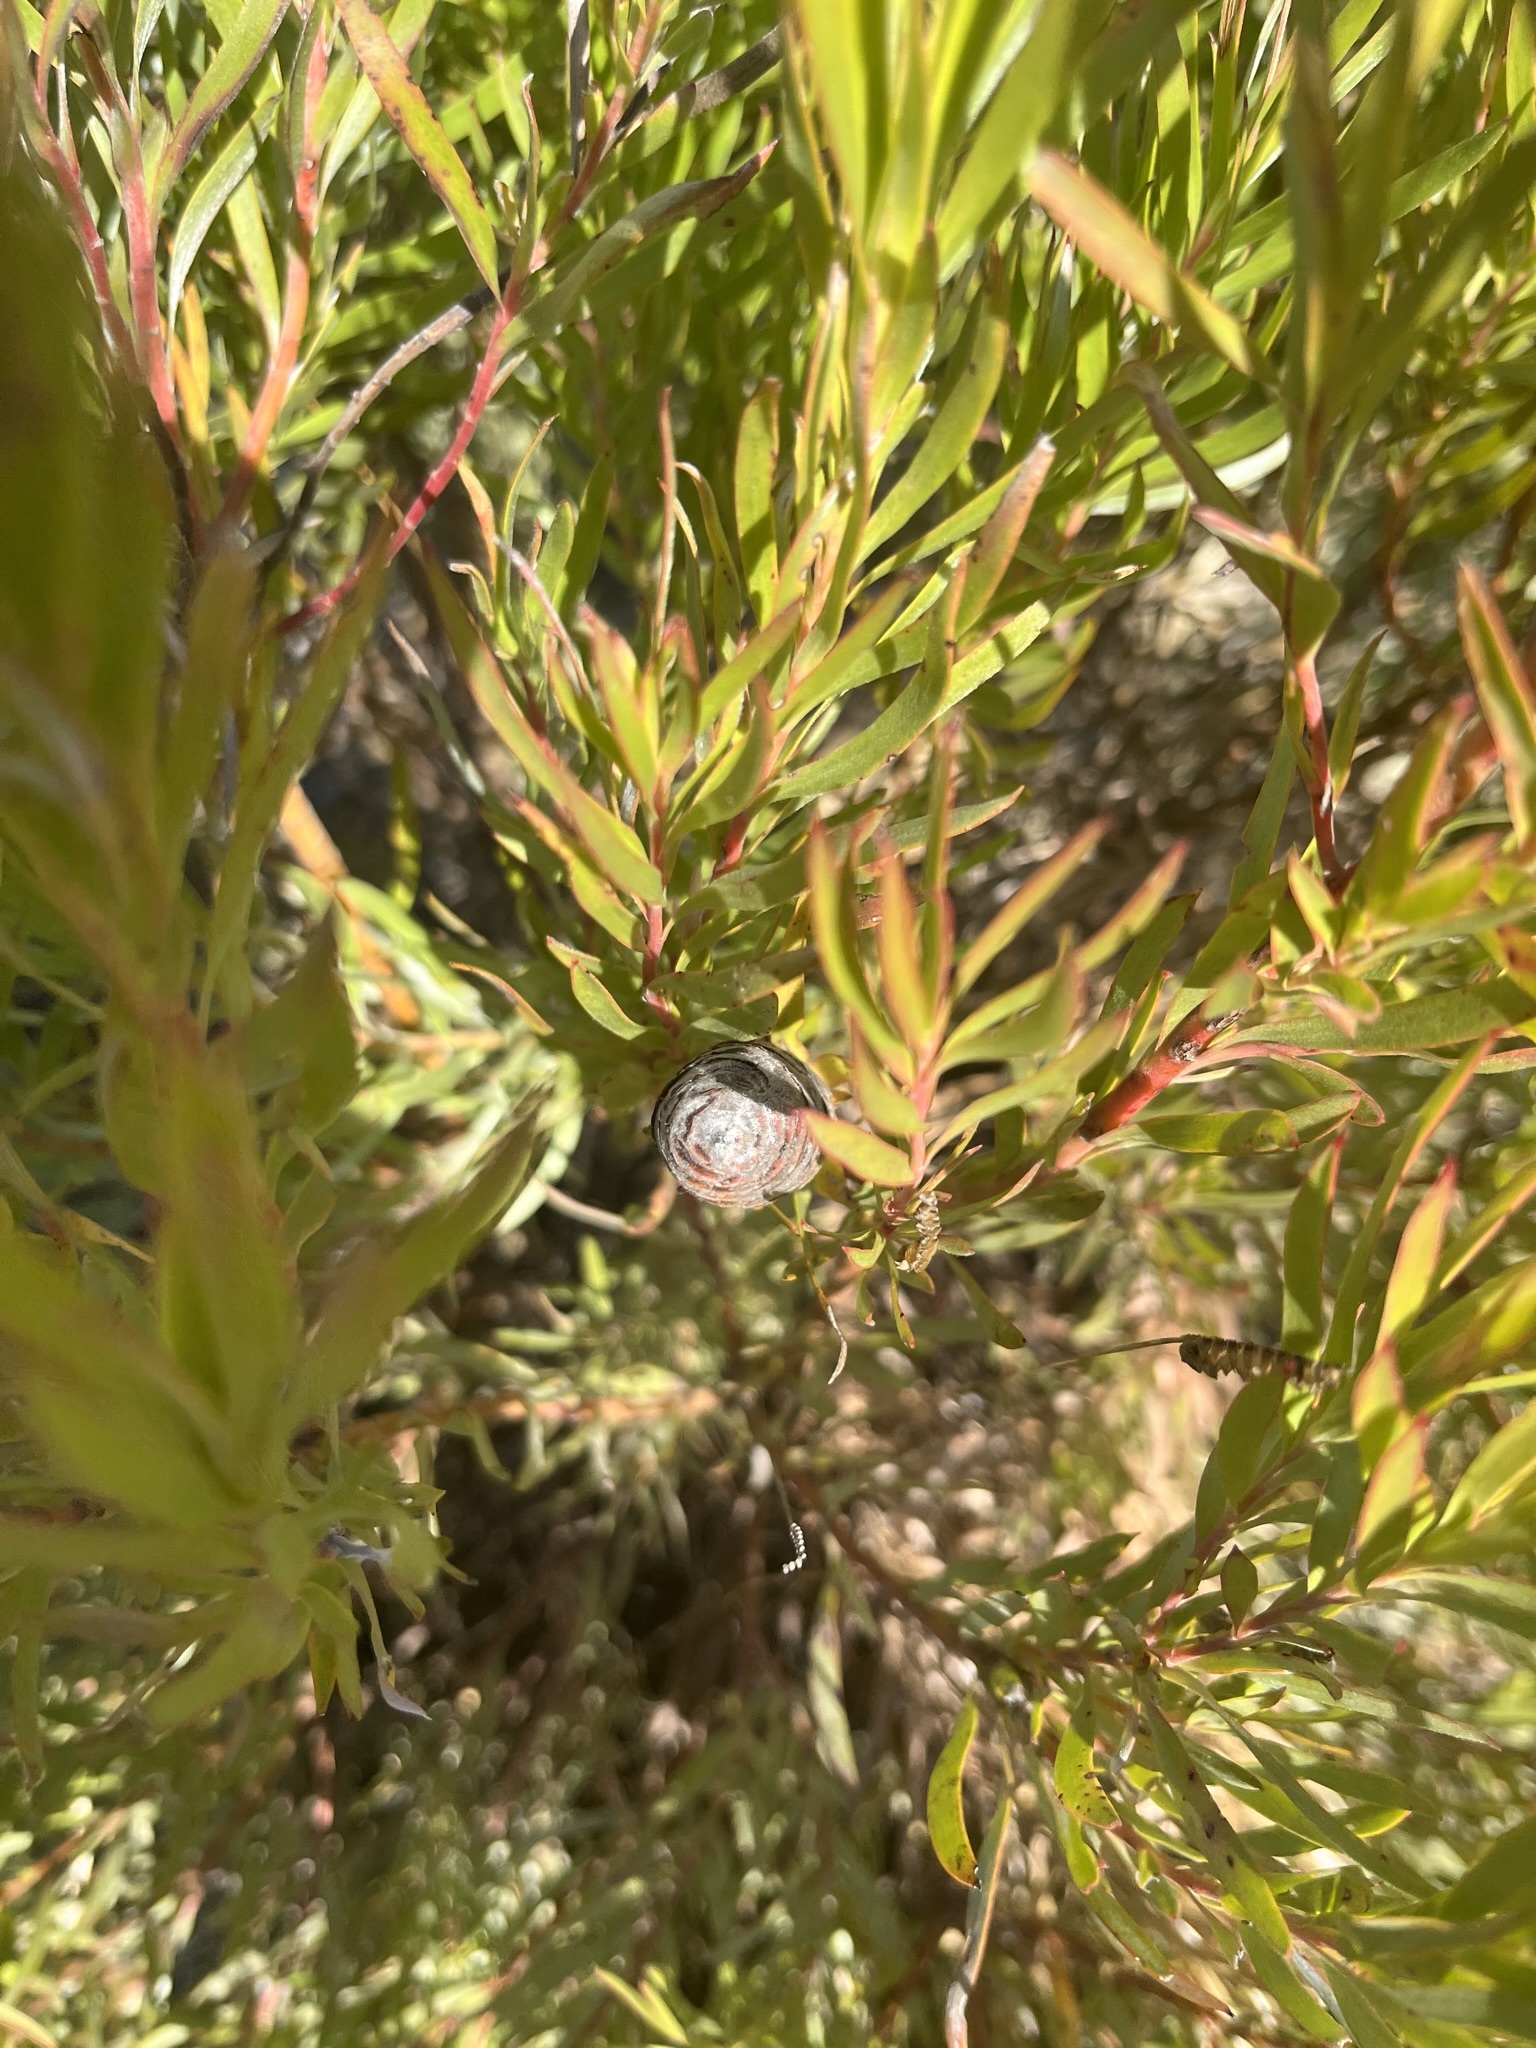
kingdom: Plantae
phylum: Tracheophyta
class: Magnoliopsida
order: Proteales
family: Proteaceae
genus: Leucadendron
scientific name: Leucadendron xanthoconus
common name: Sickle-leaf conebush
